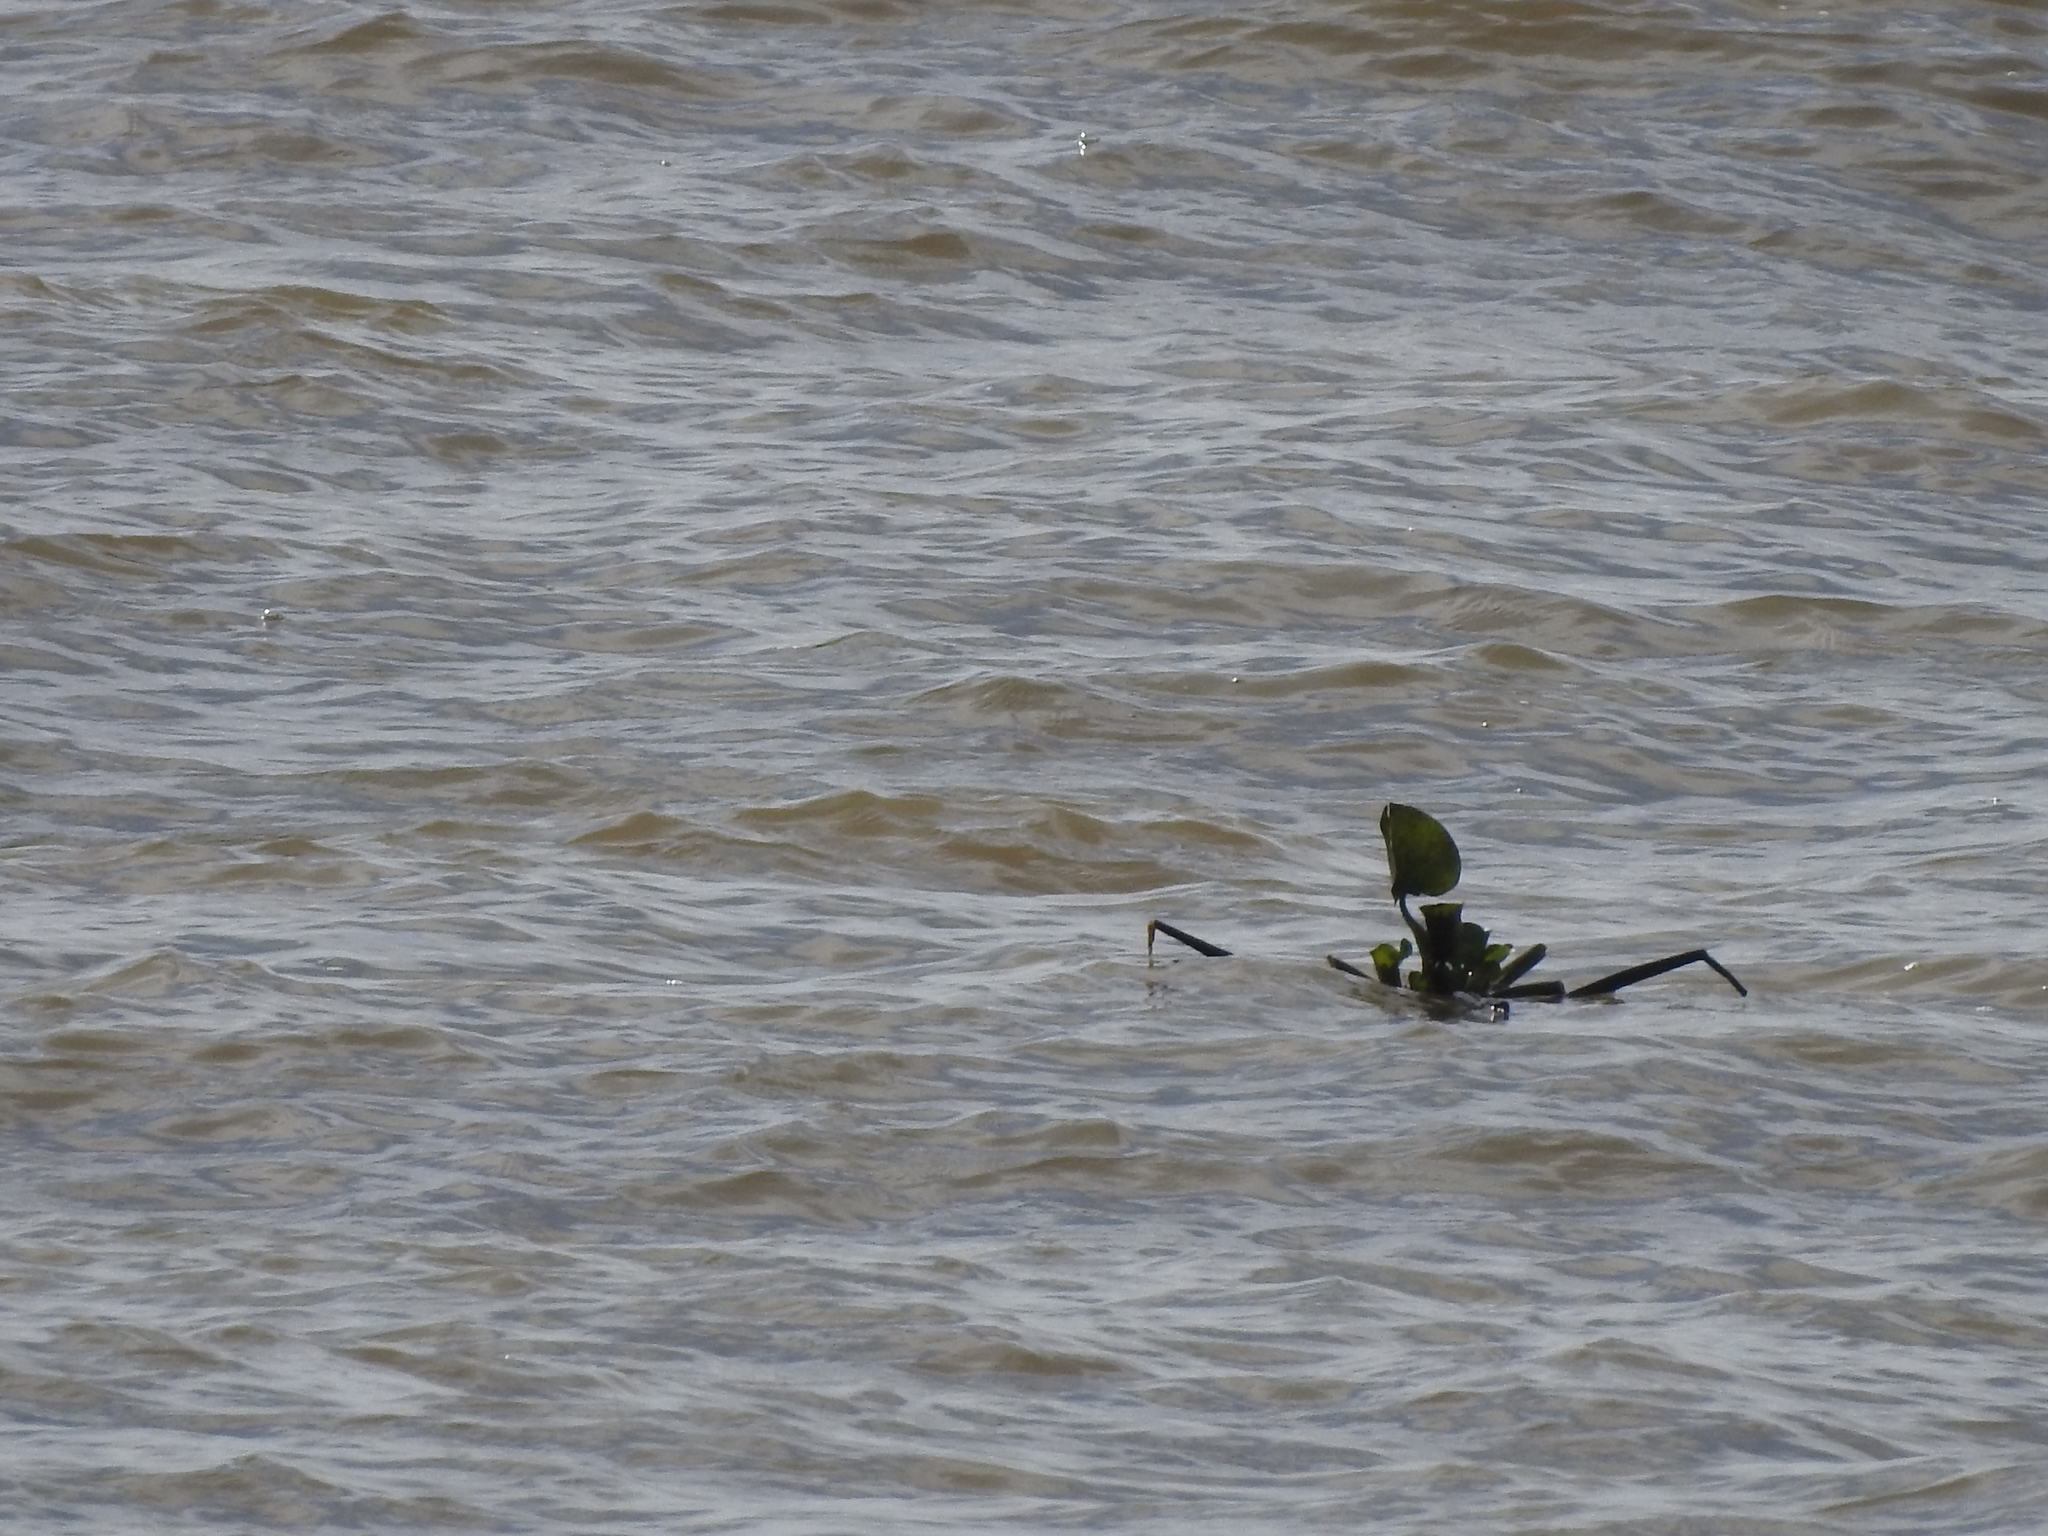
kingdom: Plantae
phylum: Tracheophyta
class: Liliopsida
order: Commelinales
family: Pontederiaceae
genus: Pontederia
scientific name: Pontederia crassipes
